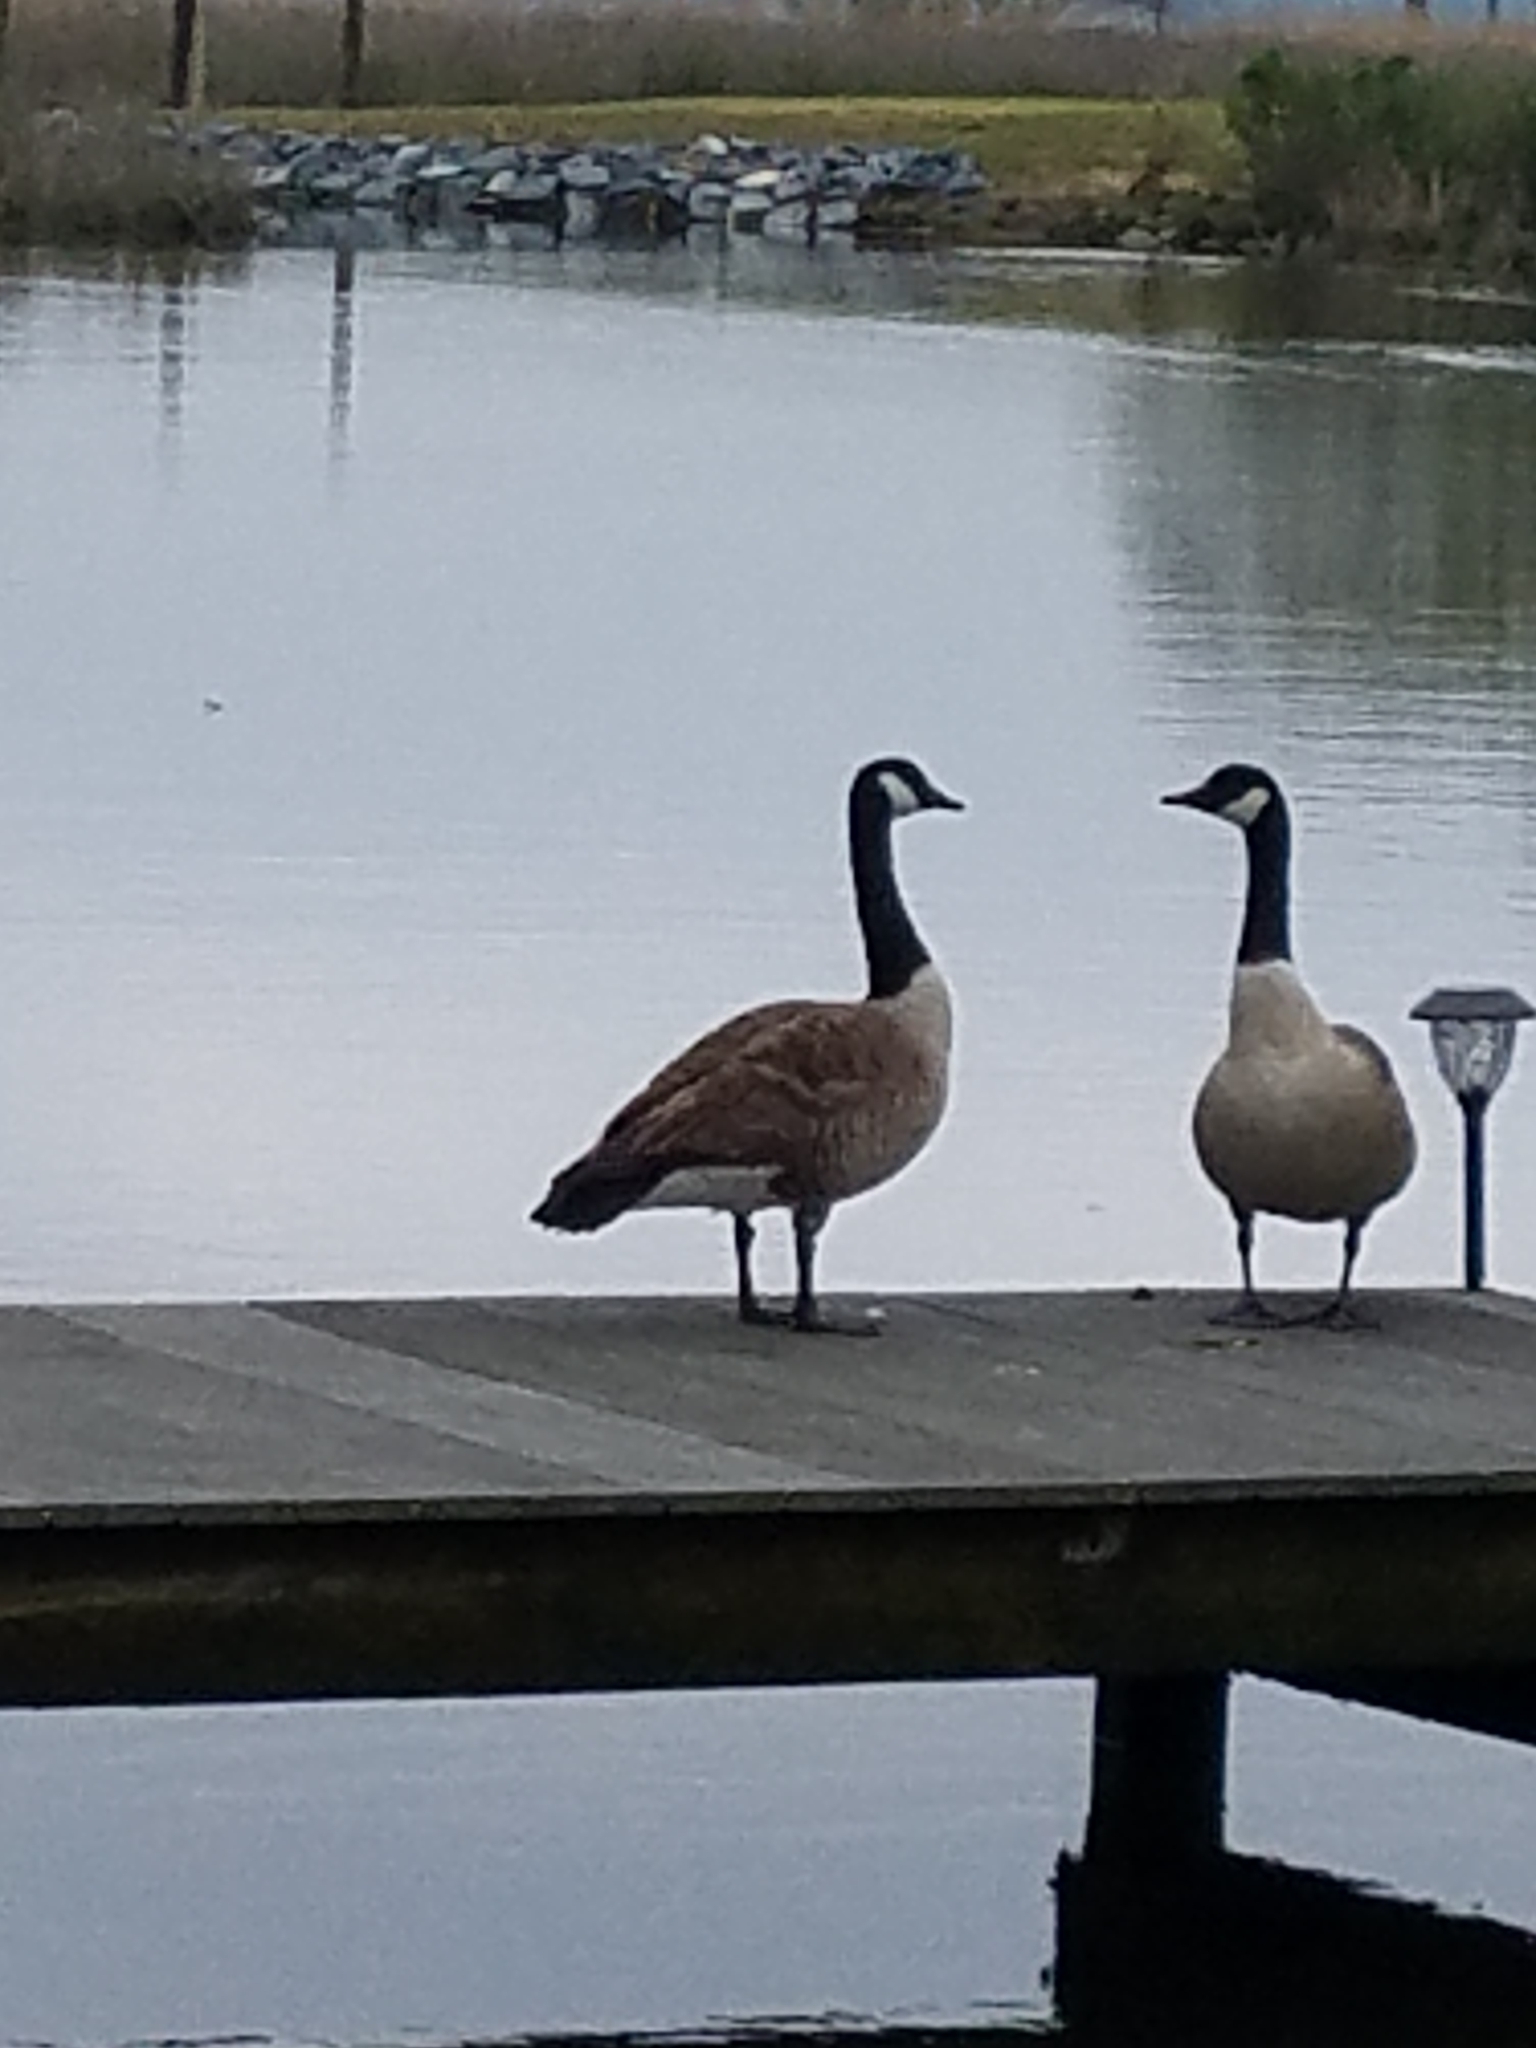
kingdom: Animalia
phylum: Chordata
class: Aves
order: Anseriformes
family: Anatidae
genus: Branta
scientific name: Branta canadensis
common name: Canada goose
